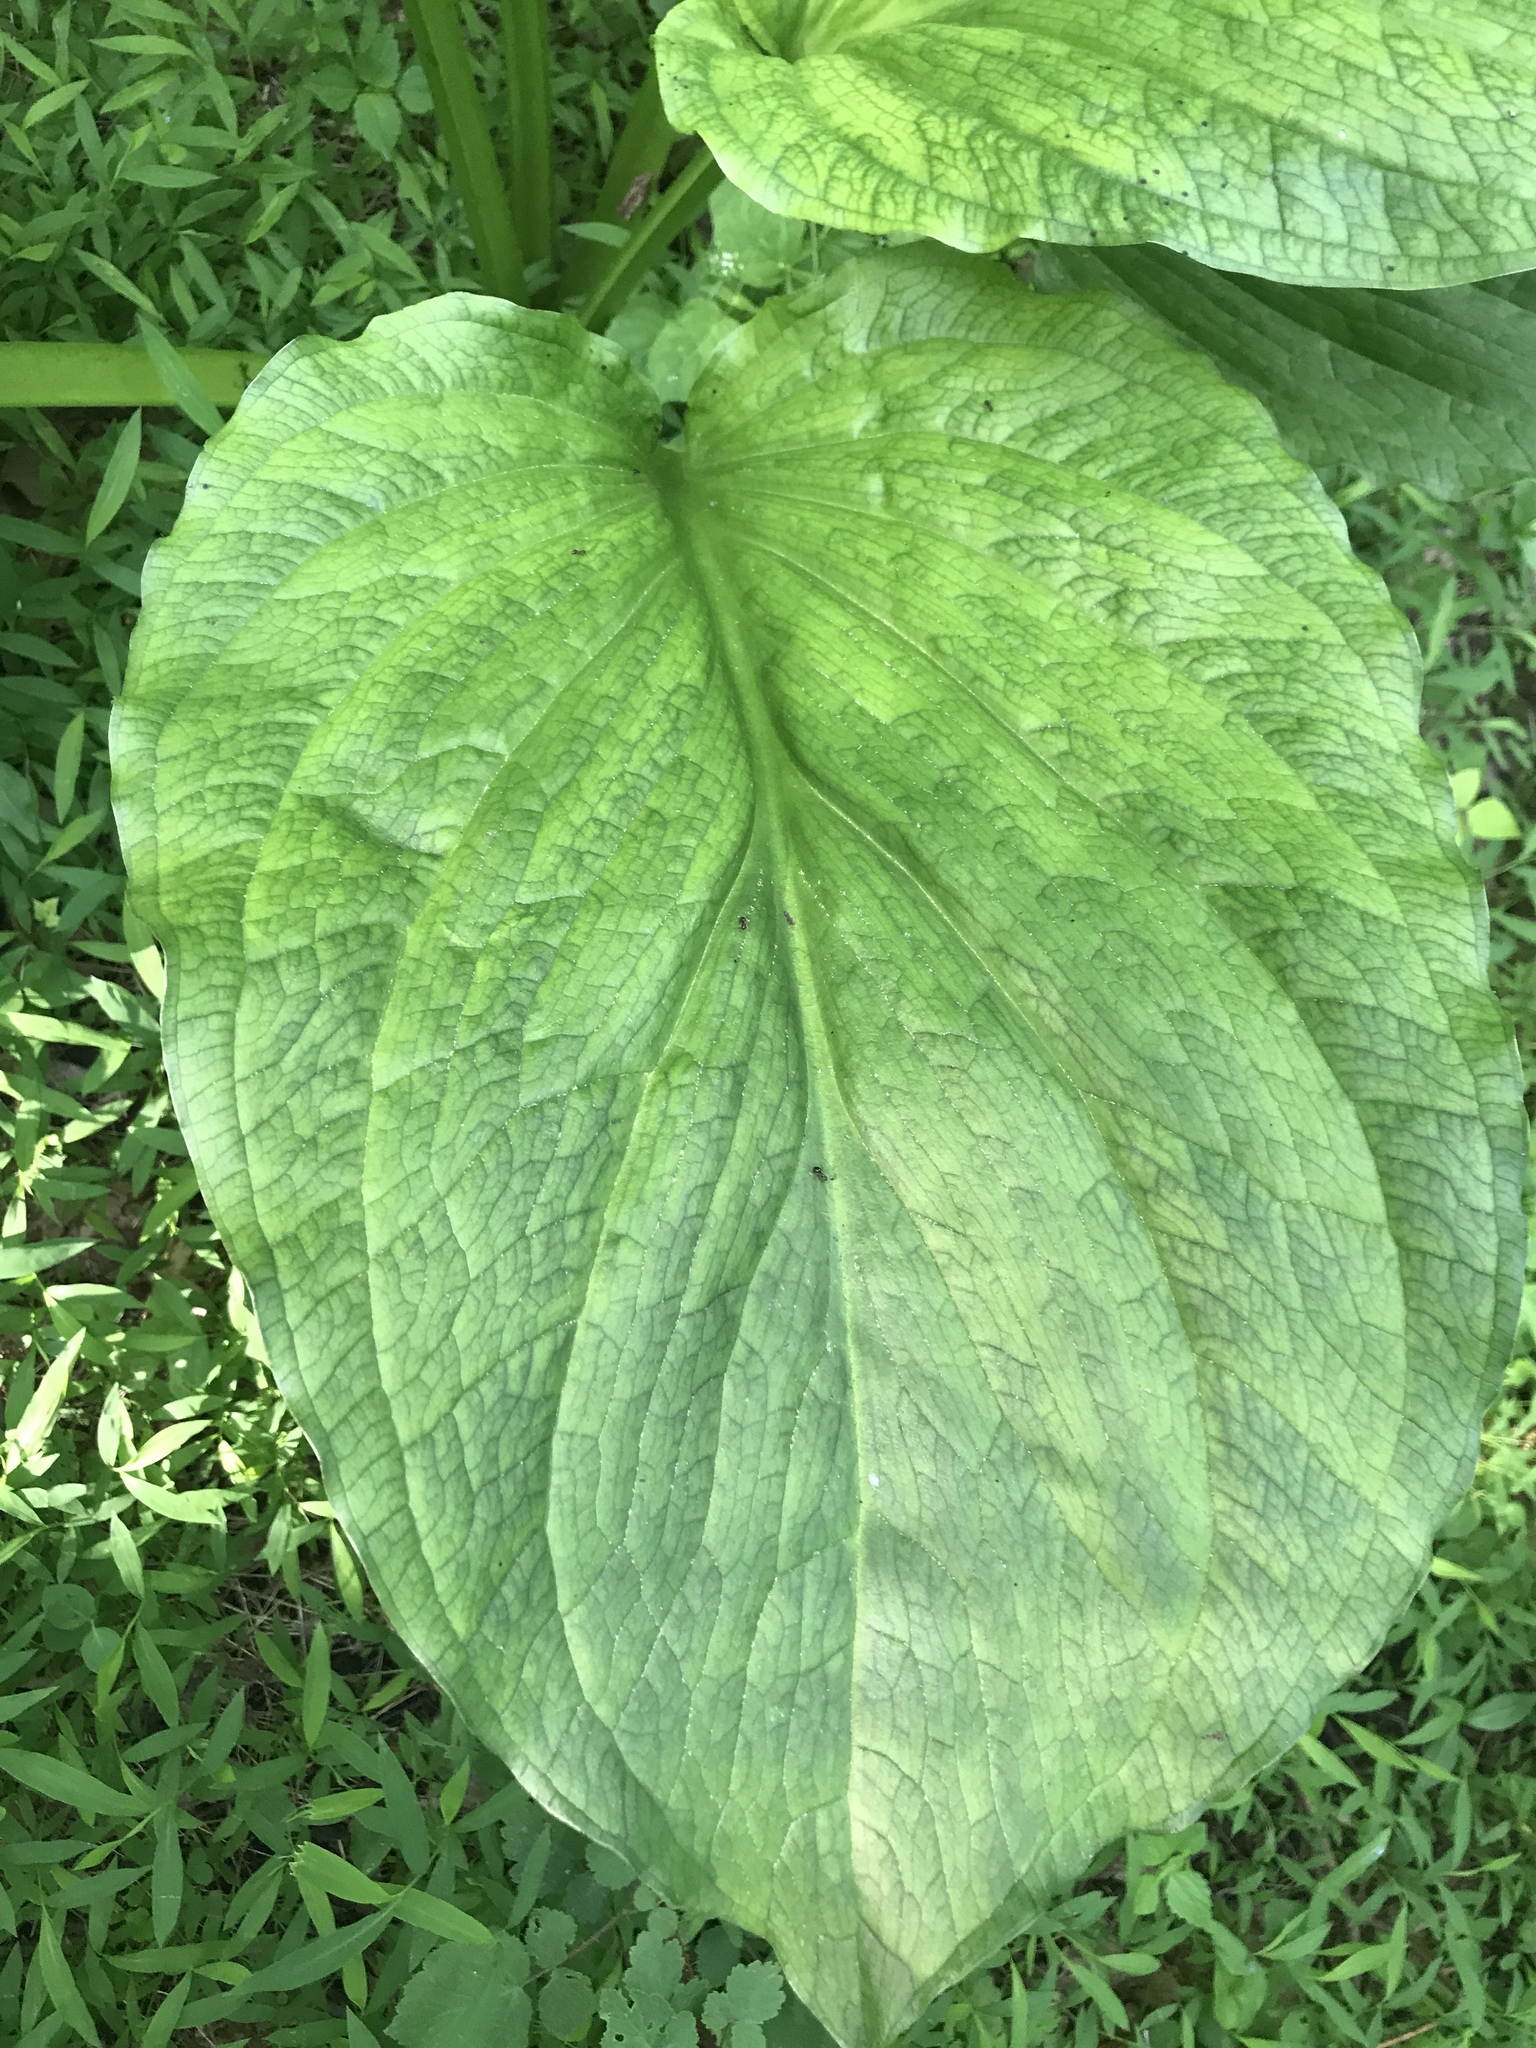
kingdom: Plantae
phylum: Tracheophyta
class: Liliopsida
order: Alismatales
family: Araceae
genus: Symplocarpus
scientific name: Symplocarpus foetidus
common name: Eastern skunk cabbage
